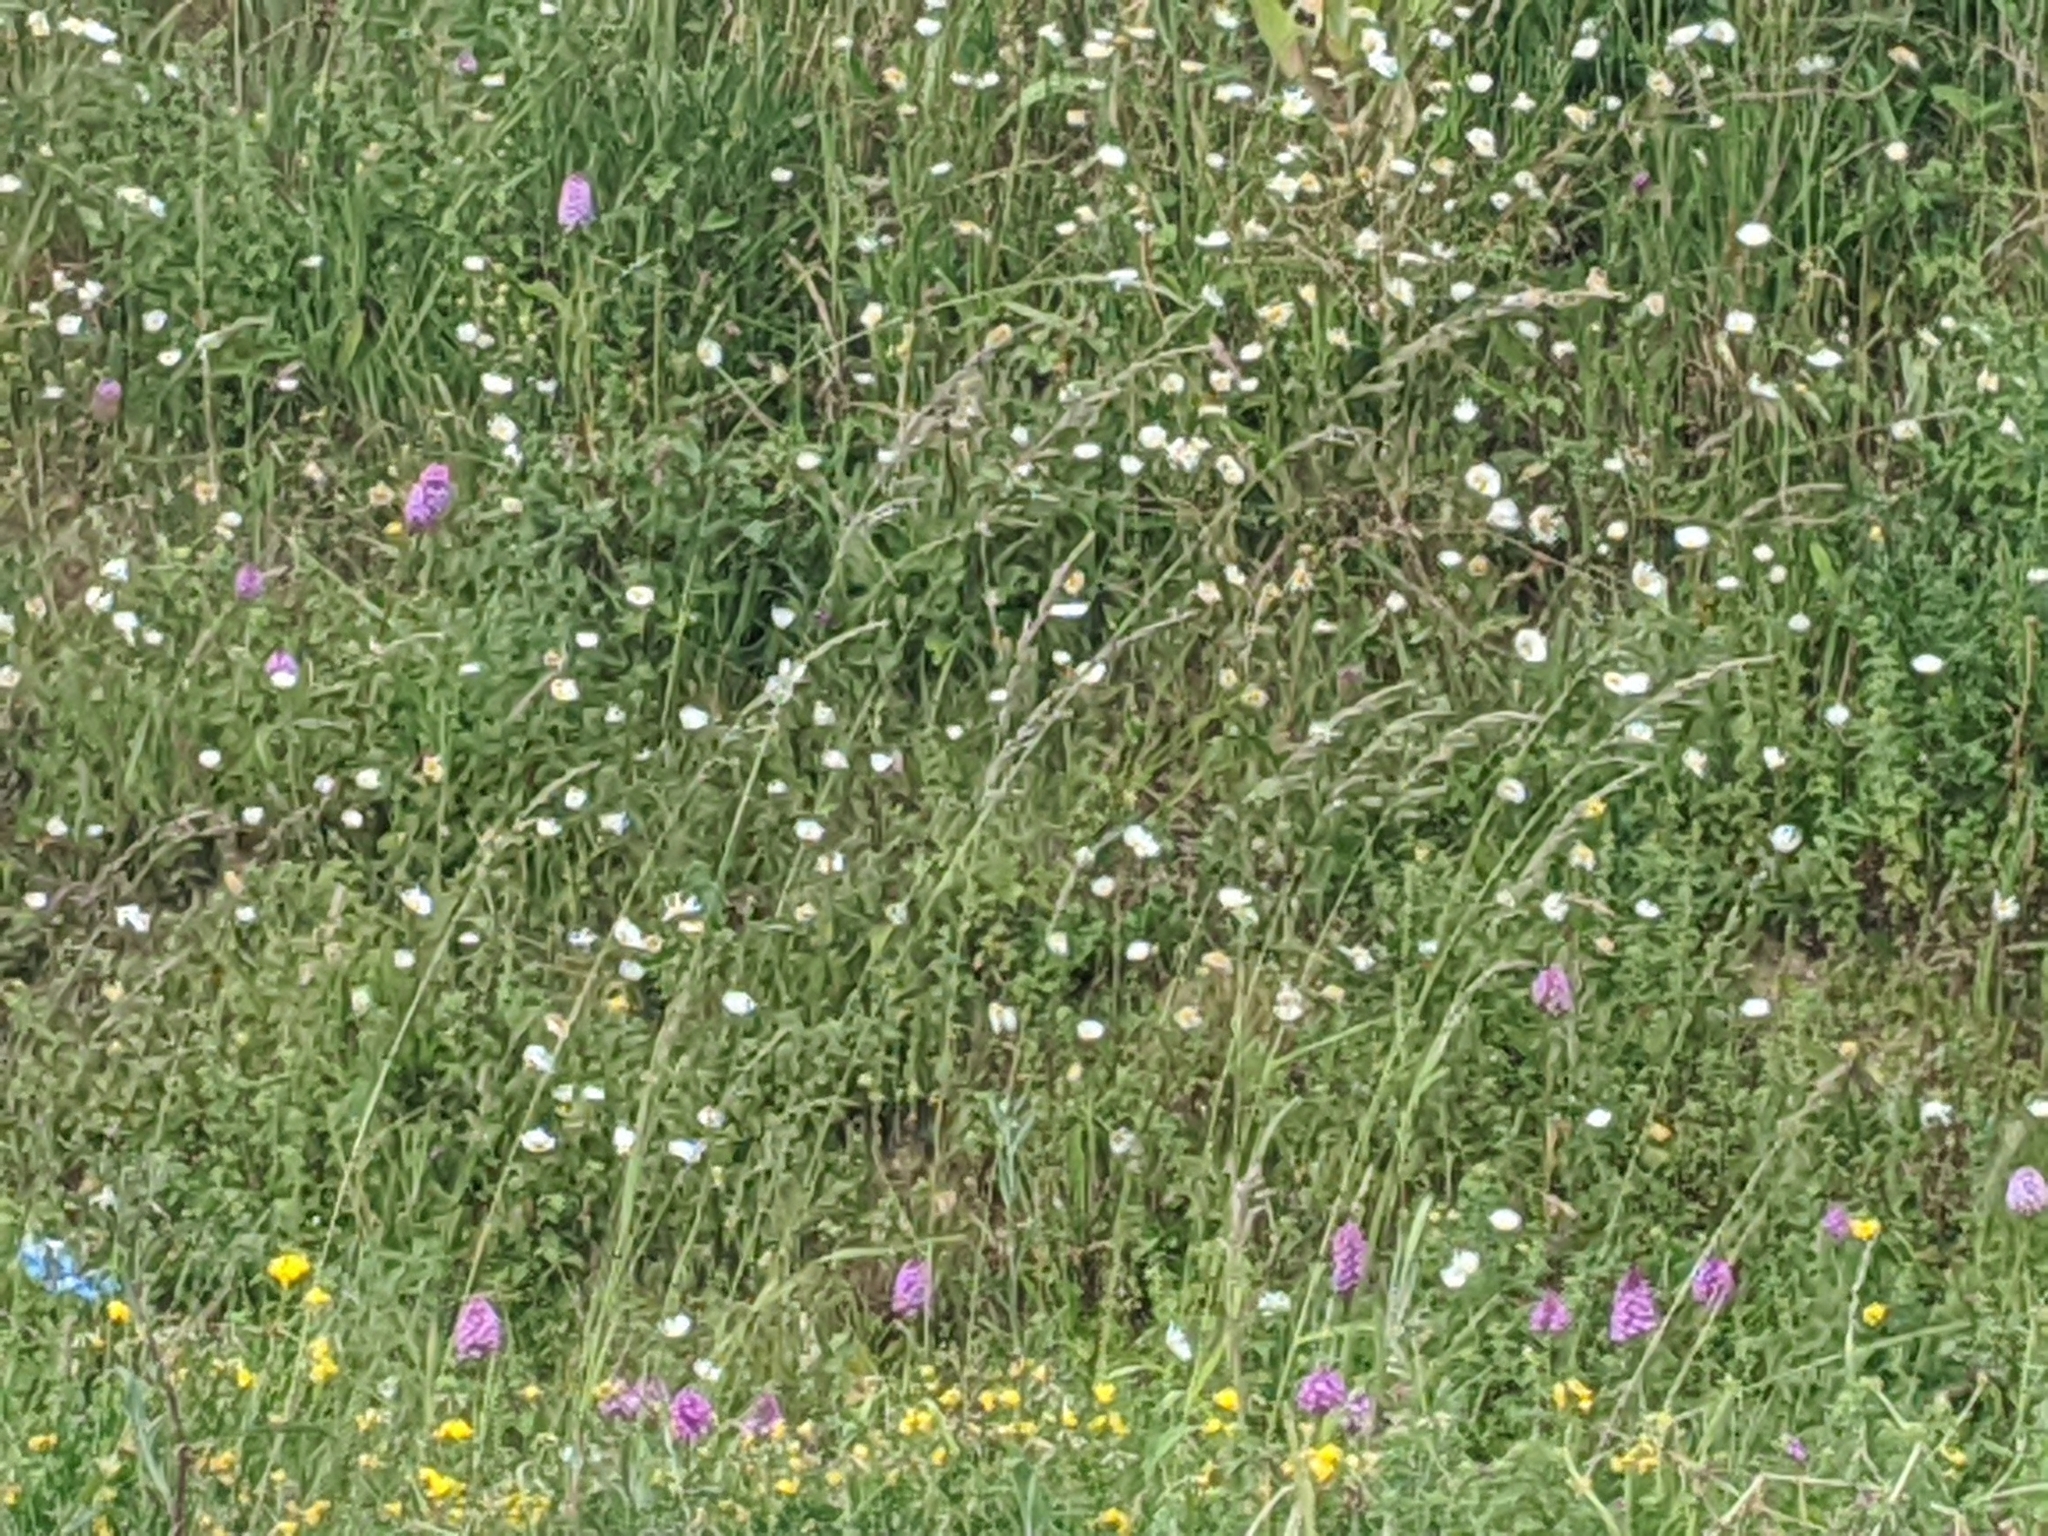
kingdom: Plantae
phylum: Tracheophyta
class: Liliopsida
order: Asparagales
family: Orchidaceae
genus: Anacamptis
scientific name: Anacamptis pyramidalis
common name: Pyramidal orchid
